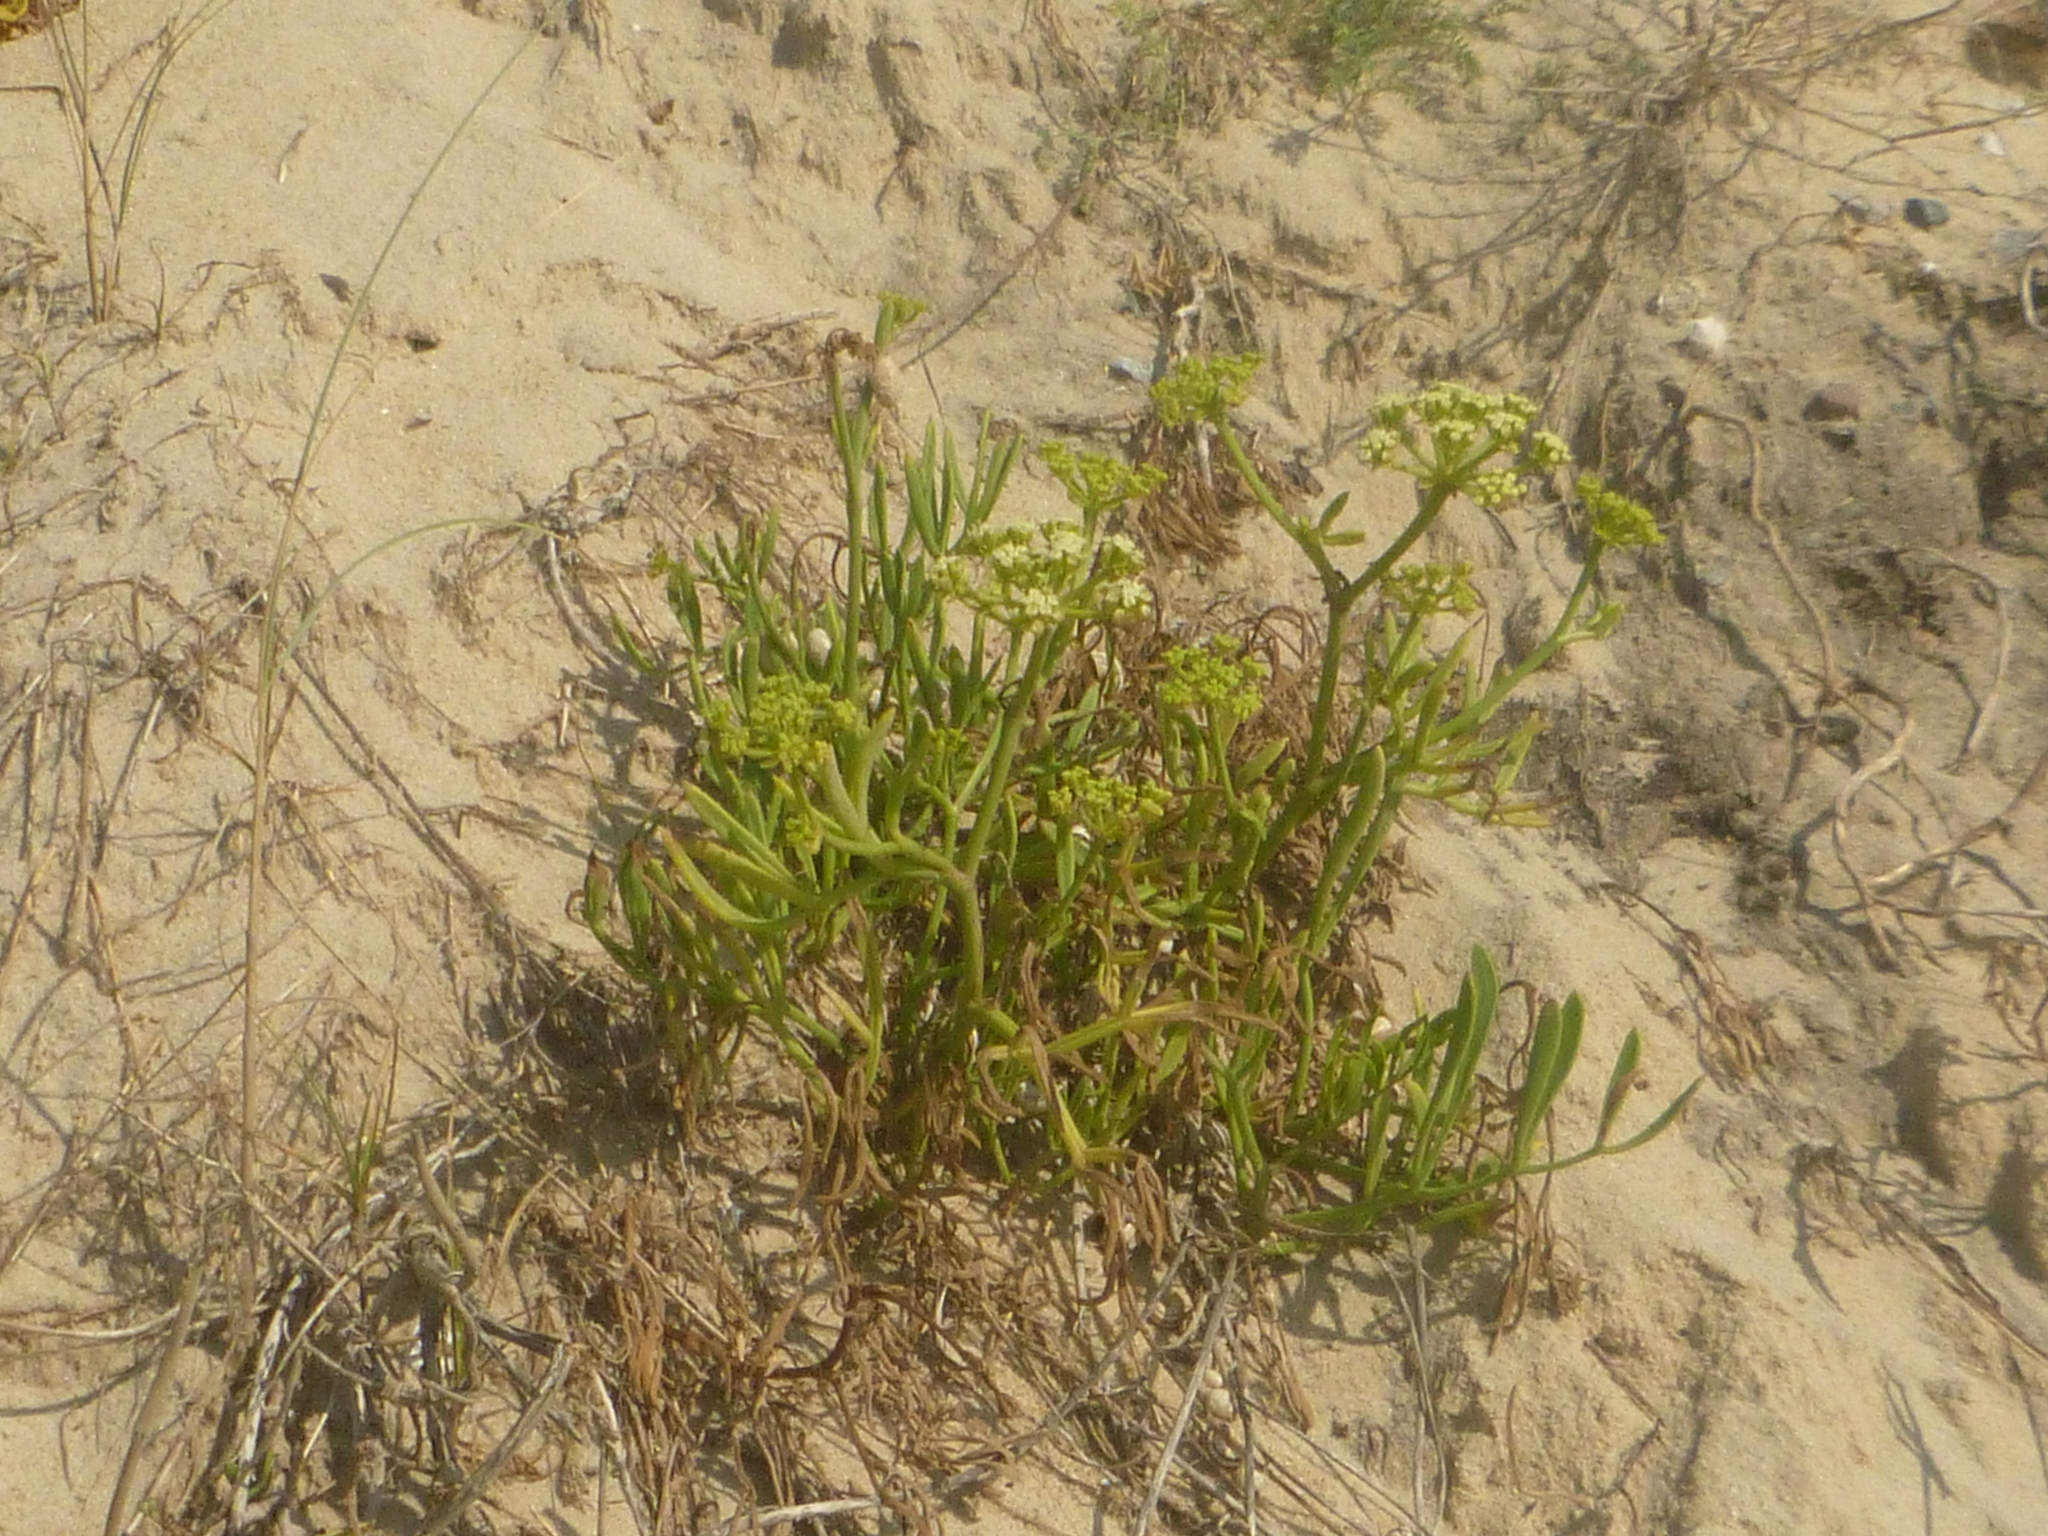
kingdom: Plantae
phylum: Tracheophyta
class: Magnoliopsida
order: Apiales
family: Apiaceae
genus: Crithmum
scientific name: Crithmum maritimum
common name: Rock samphire
